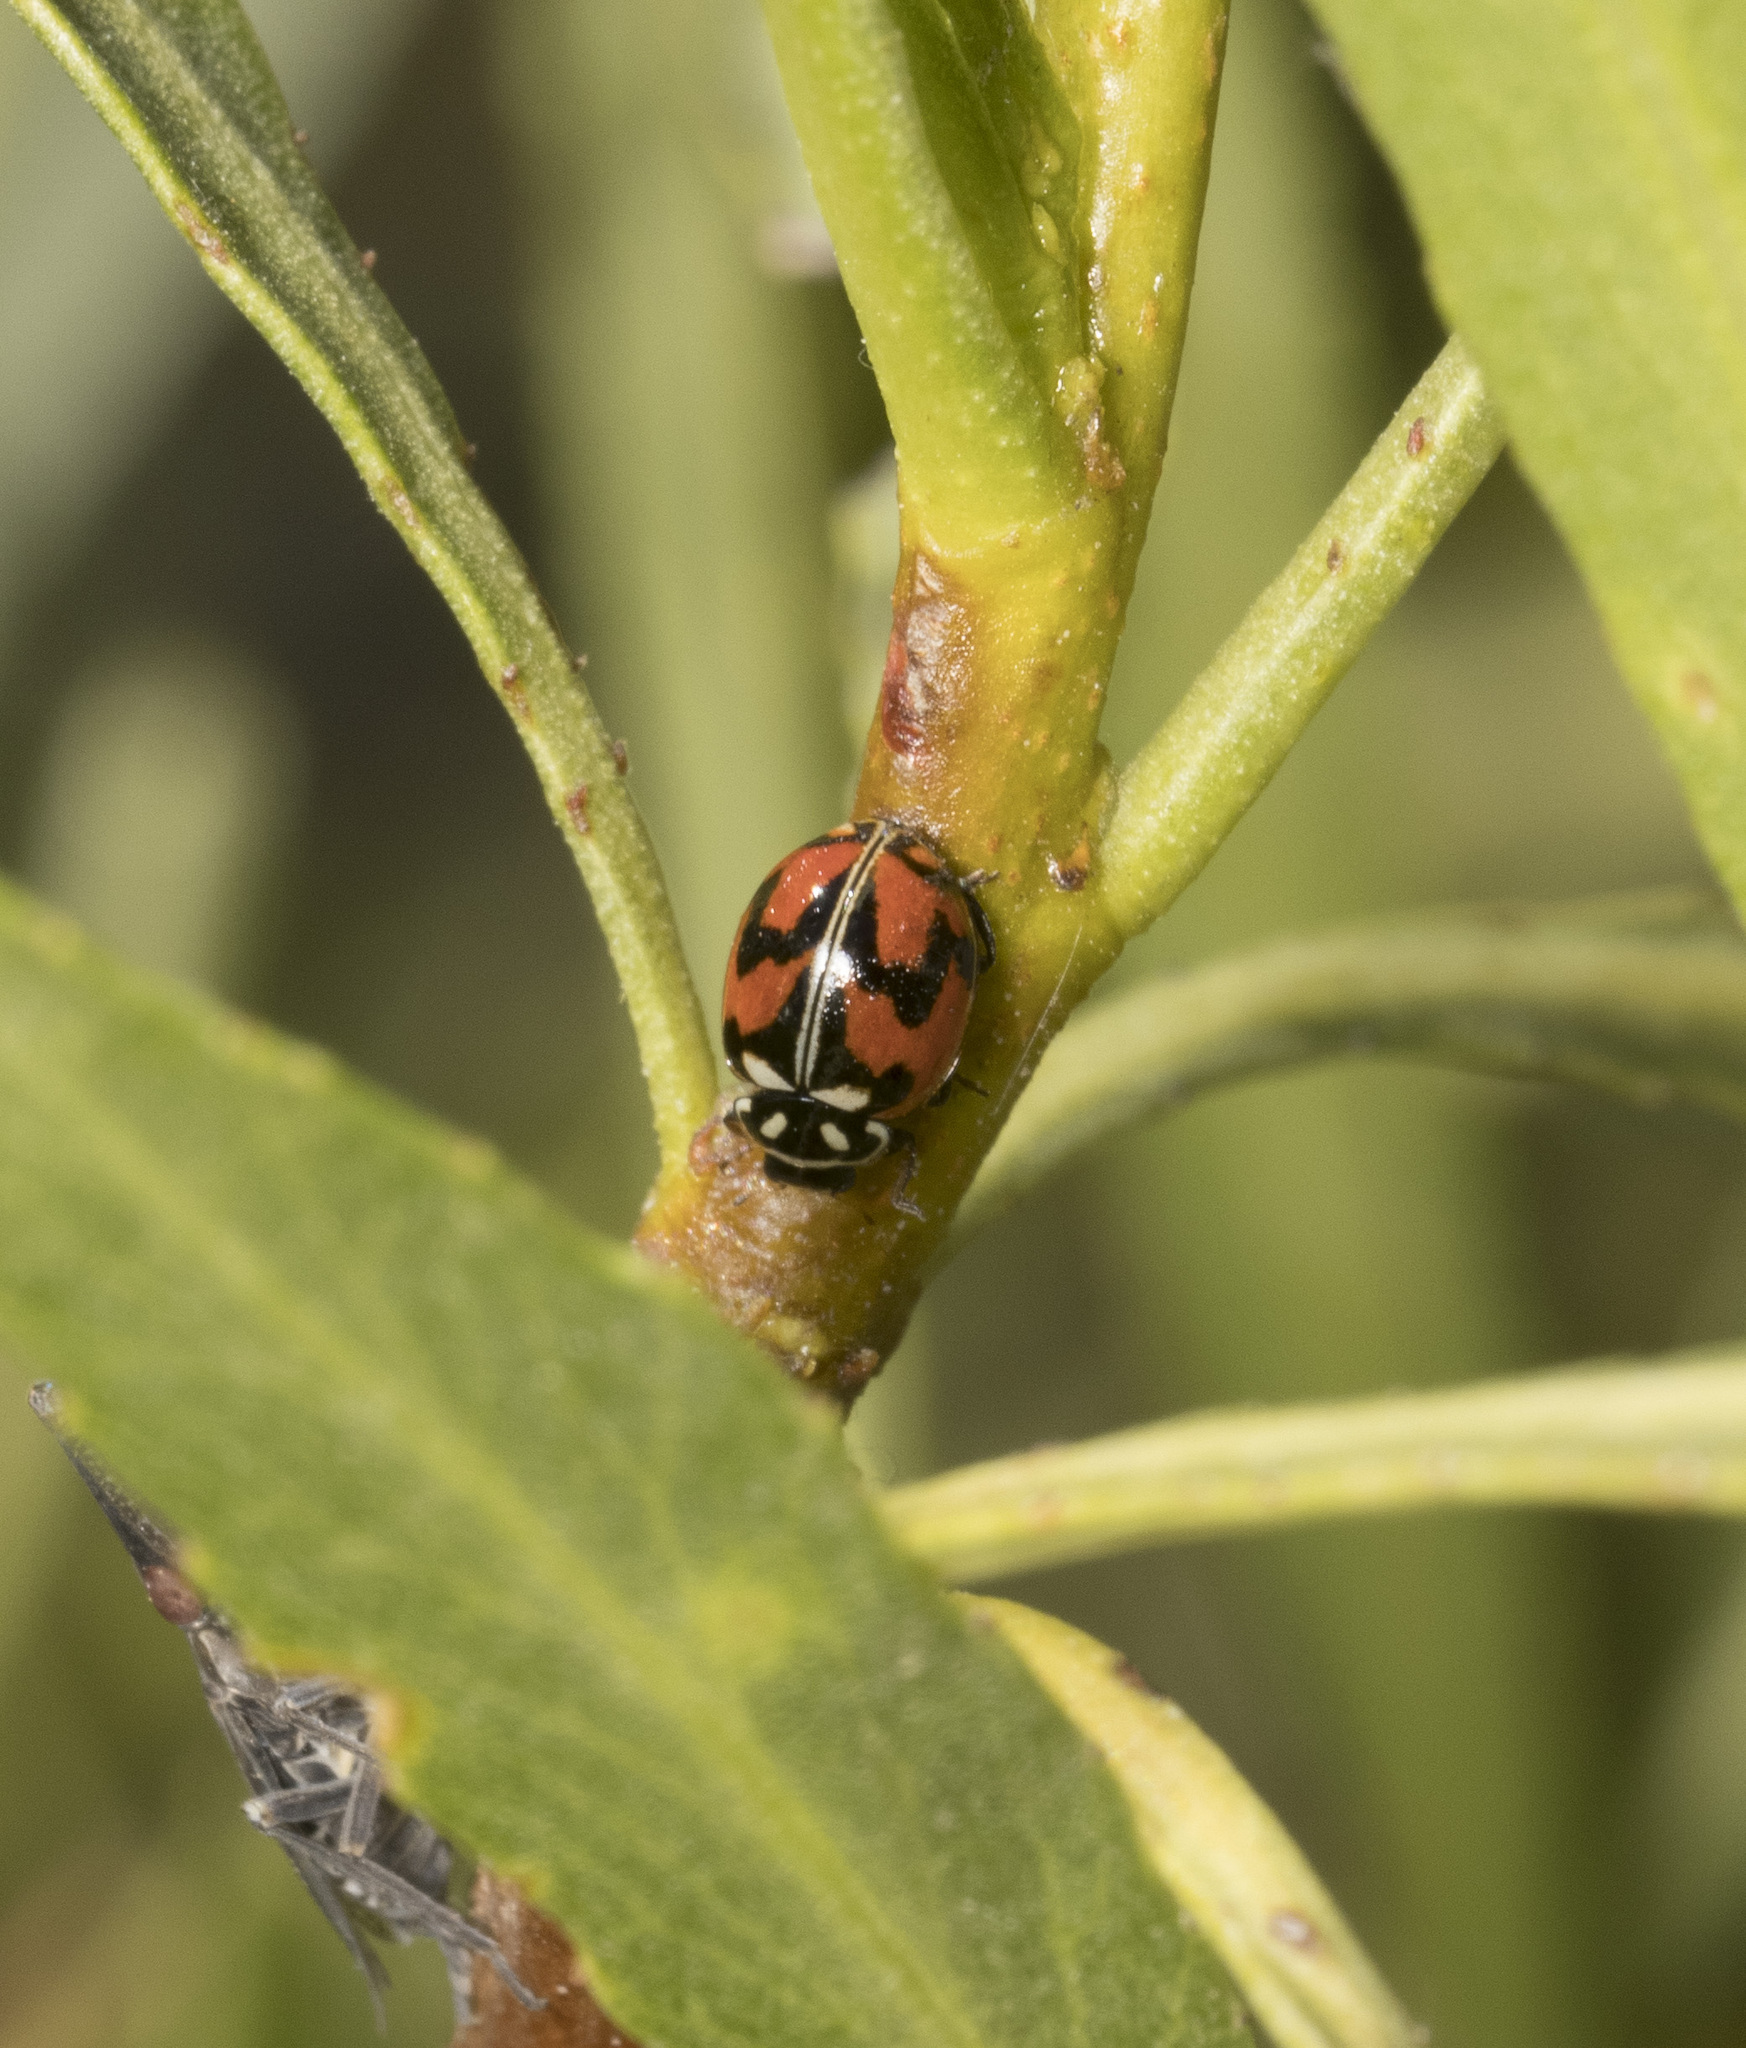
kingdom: Animalia
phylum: Arthropoda
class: Insecta
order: Coleoptera
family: Coccinellidae
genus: Adalia
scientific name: Adalia angulifera
